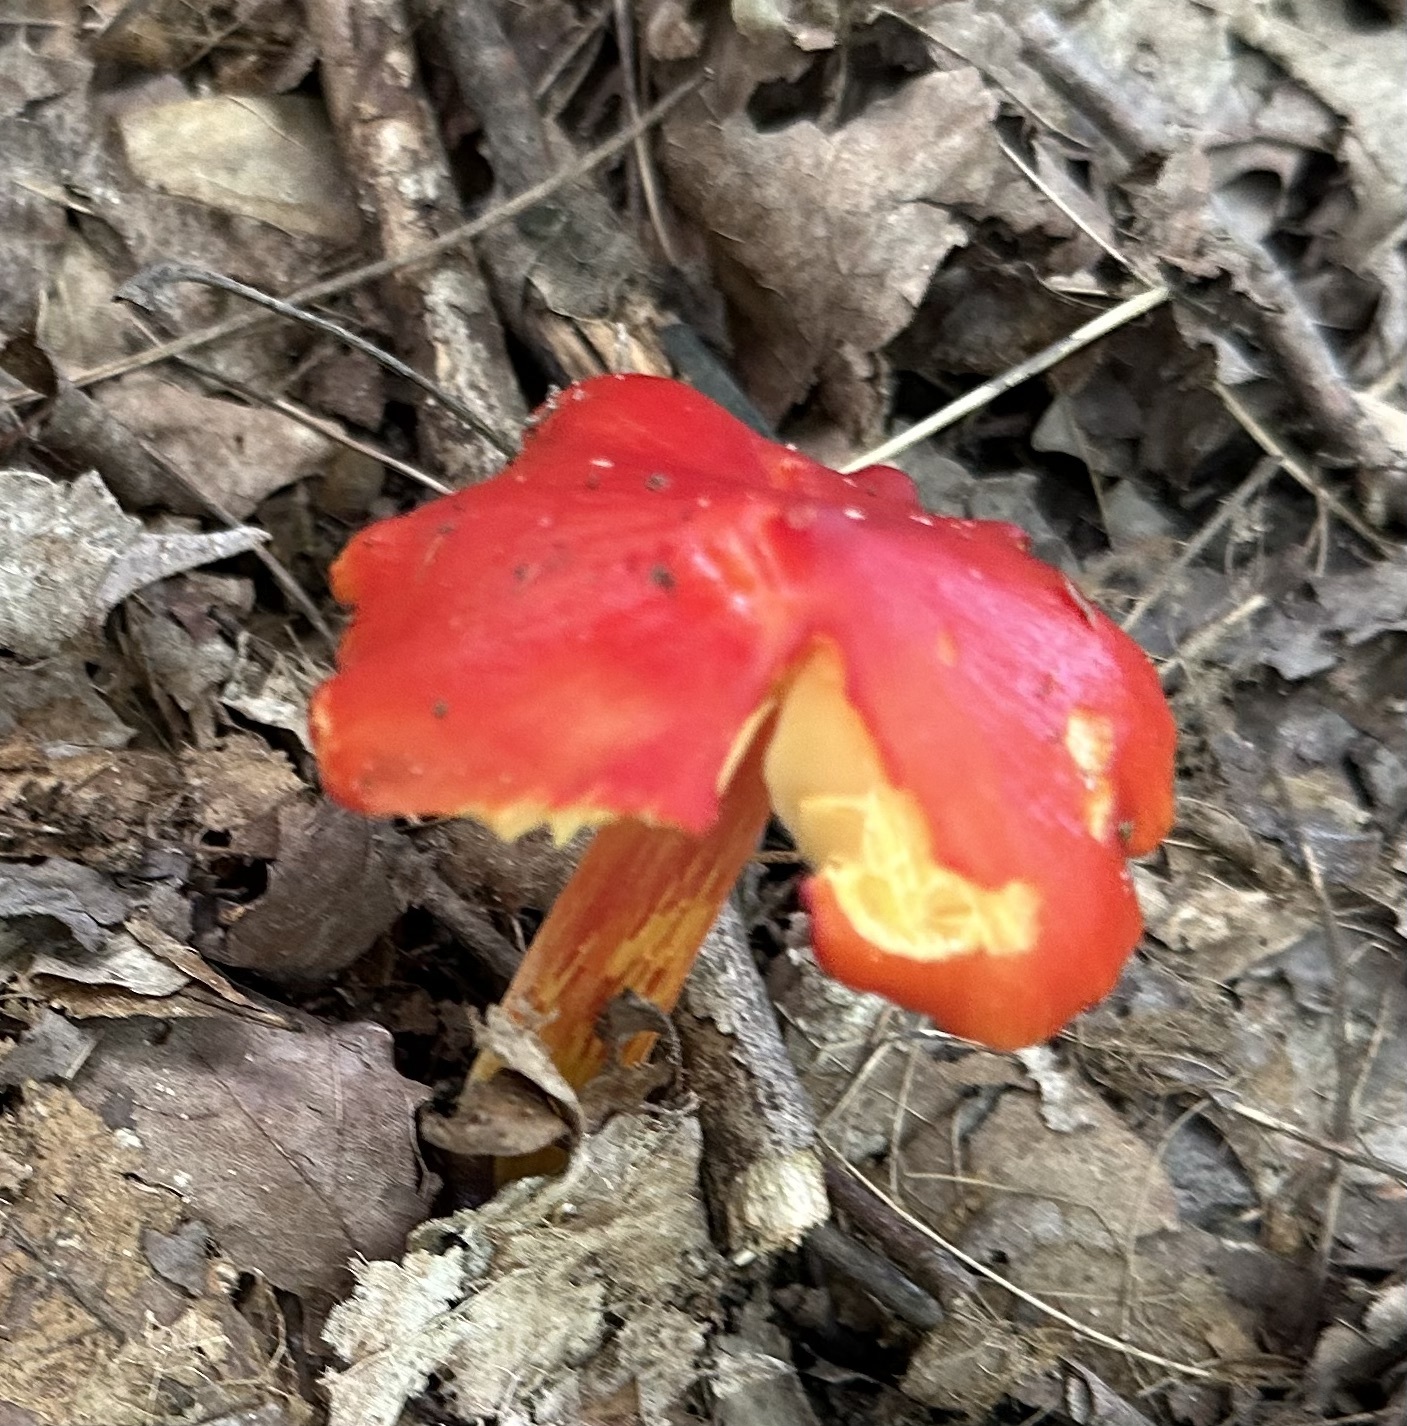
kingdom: Fungi
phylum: Basidiomycota
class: Agaricomycetes
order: Agaricales
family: Hygrophoraceae
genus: Hygrocybe
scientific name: Hygrocybe cuspidata
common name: Candy apple waxy cap
